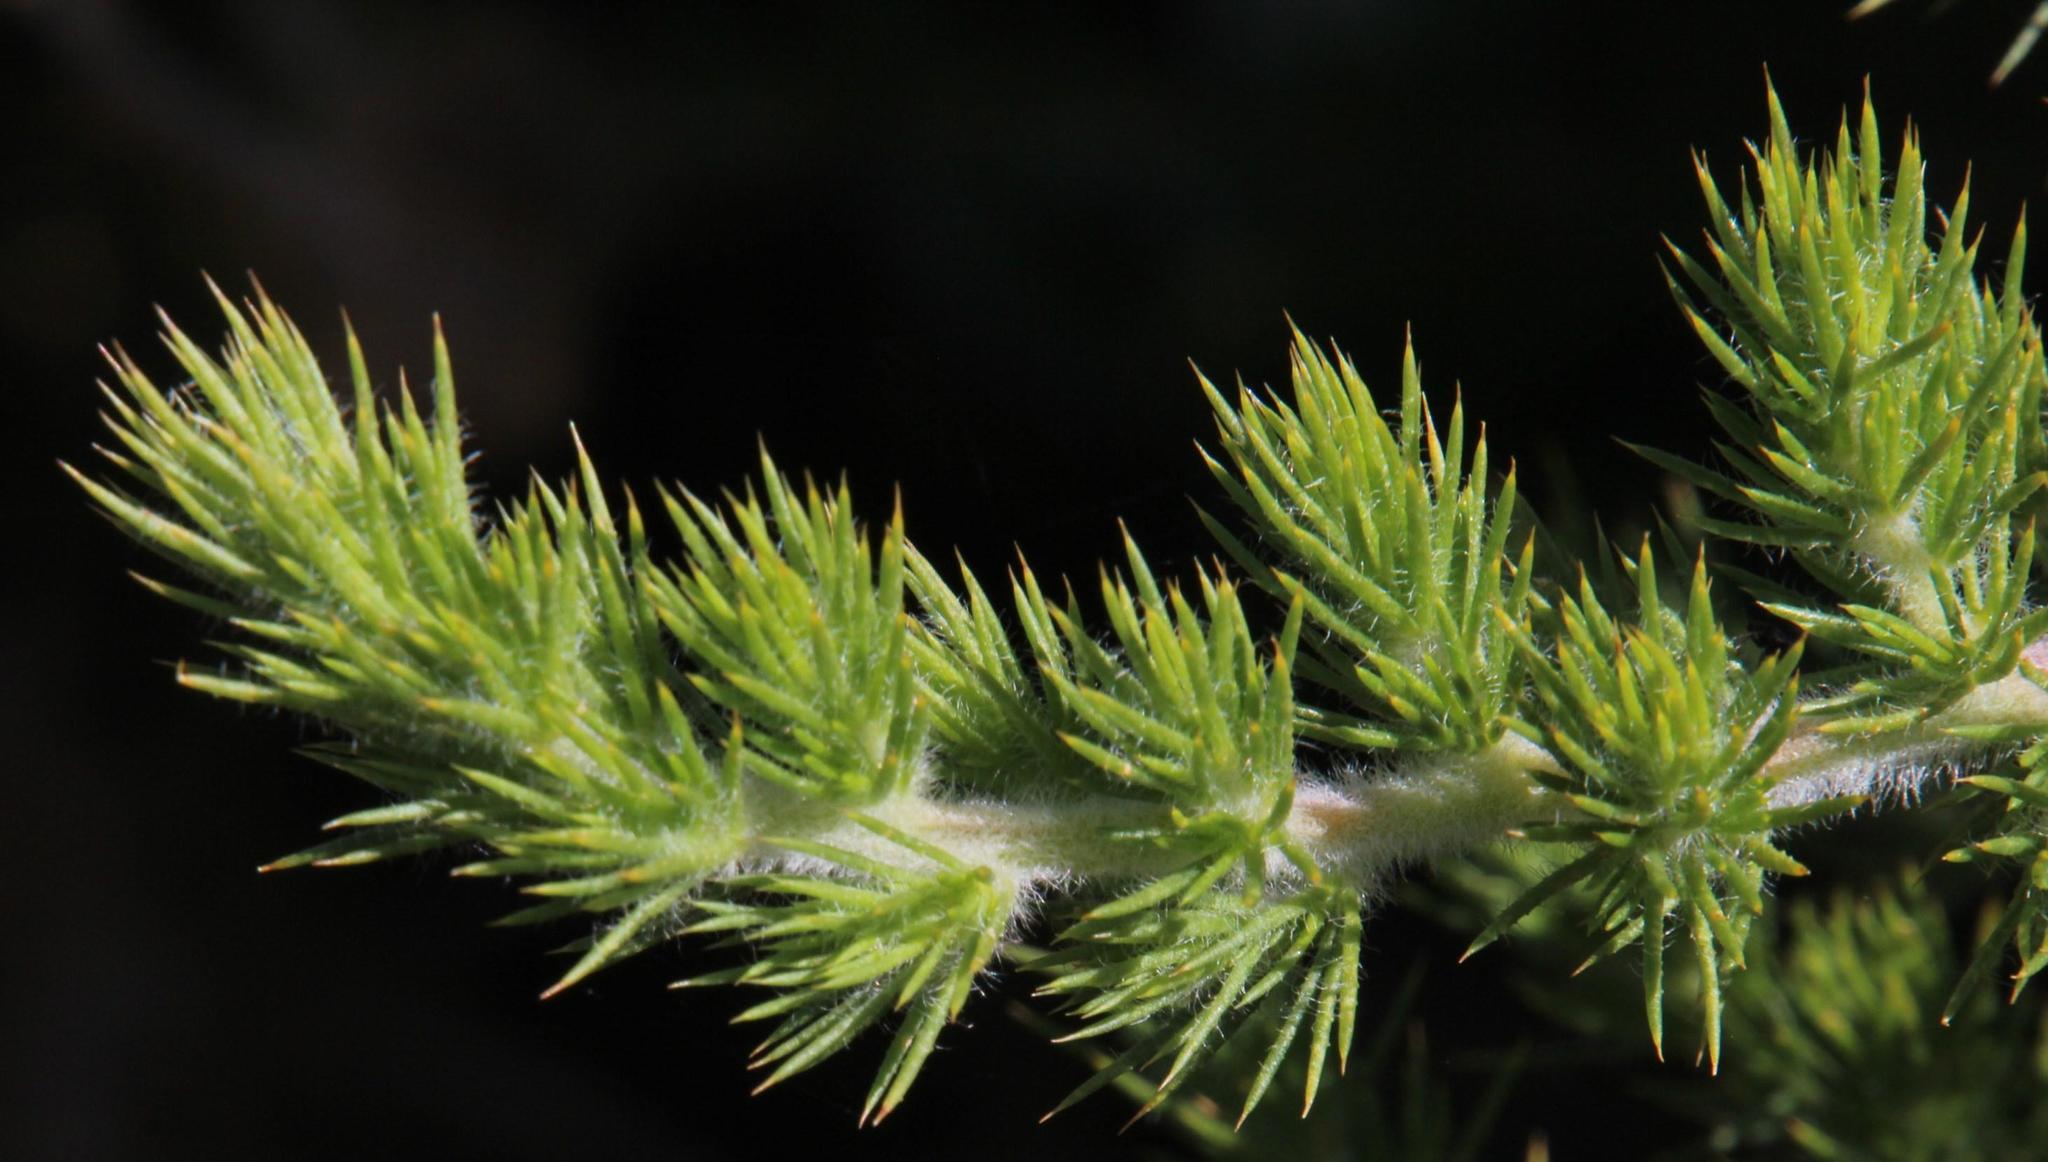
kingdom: Plantae
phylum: Tracheophyta
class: Magnoliopsida
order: Fabales
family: Fabaceae
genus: Aspalathus
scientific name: Aspalathus chenopoda
